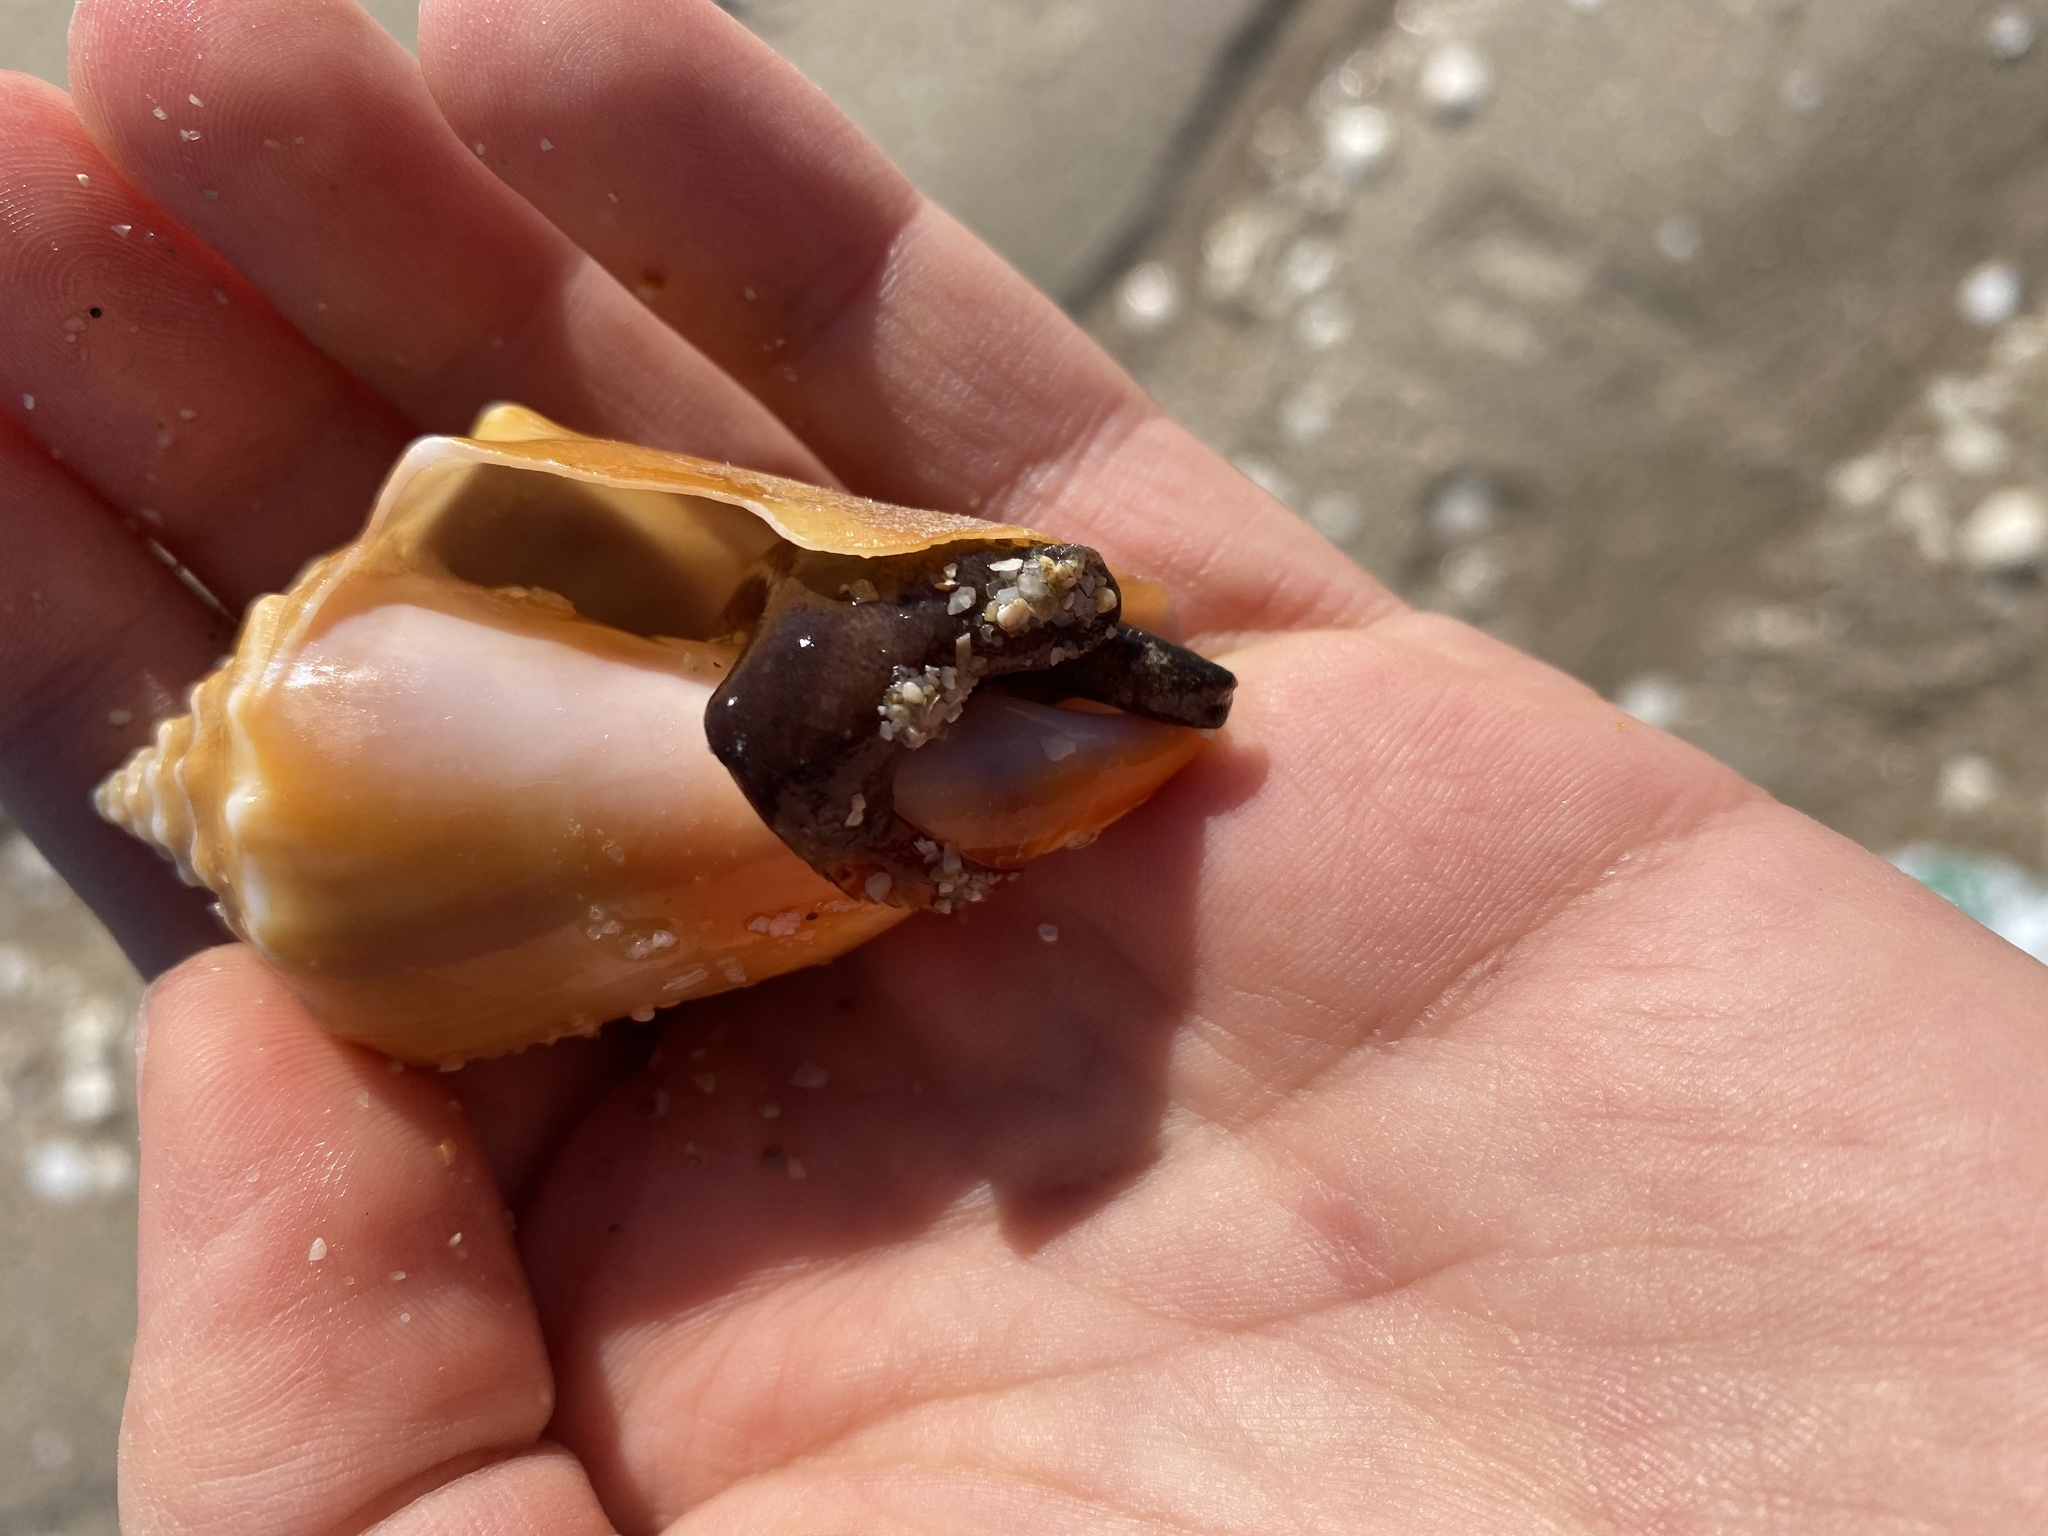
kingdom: Animalia
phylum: Mollusca
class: Gastropoda
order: Littorinimorpha
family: Strombidae
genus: Strombus
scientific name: Strombus gracilior
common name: Eastern pacific fighting conch
